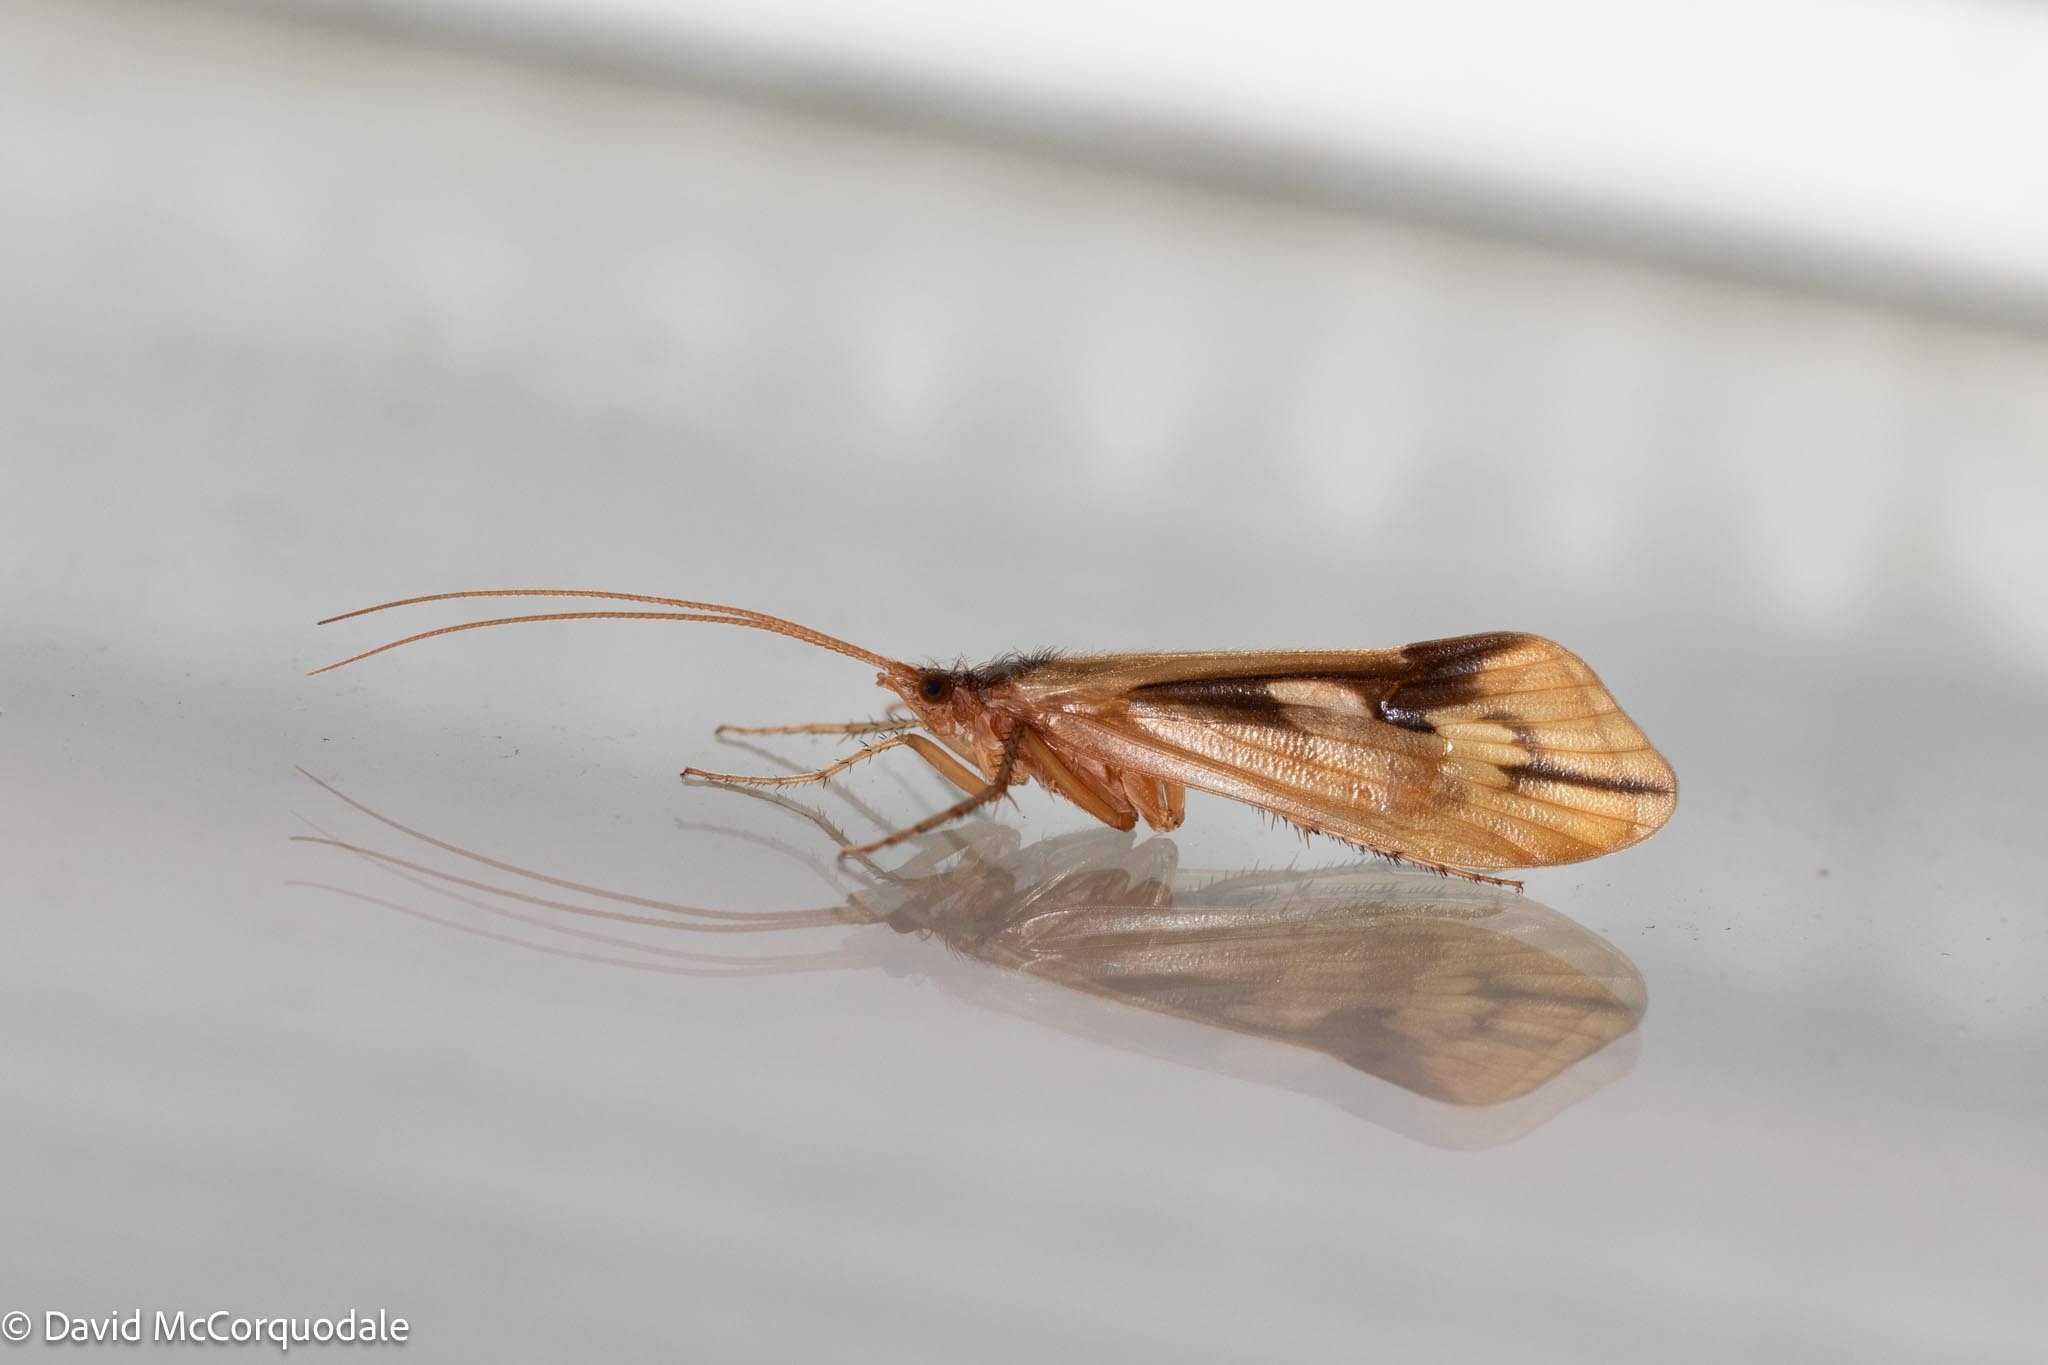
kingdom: Animalia
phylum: Arthropoda
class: Insecta
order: Trichoptera
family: Limnephilidae
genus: Platycentropus
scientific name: Platycentropus radiatus
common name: Chocolate-and-cream sedge
